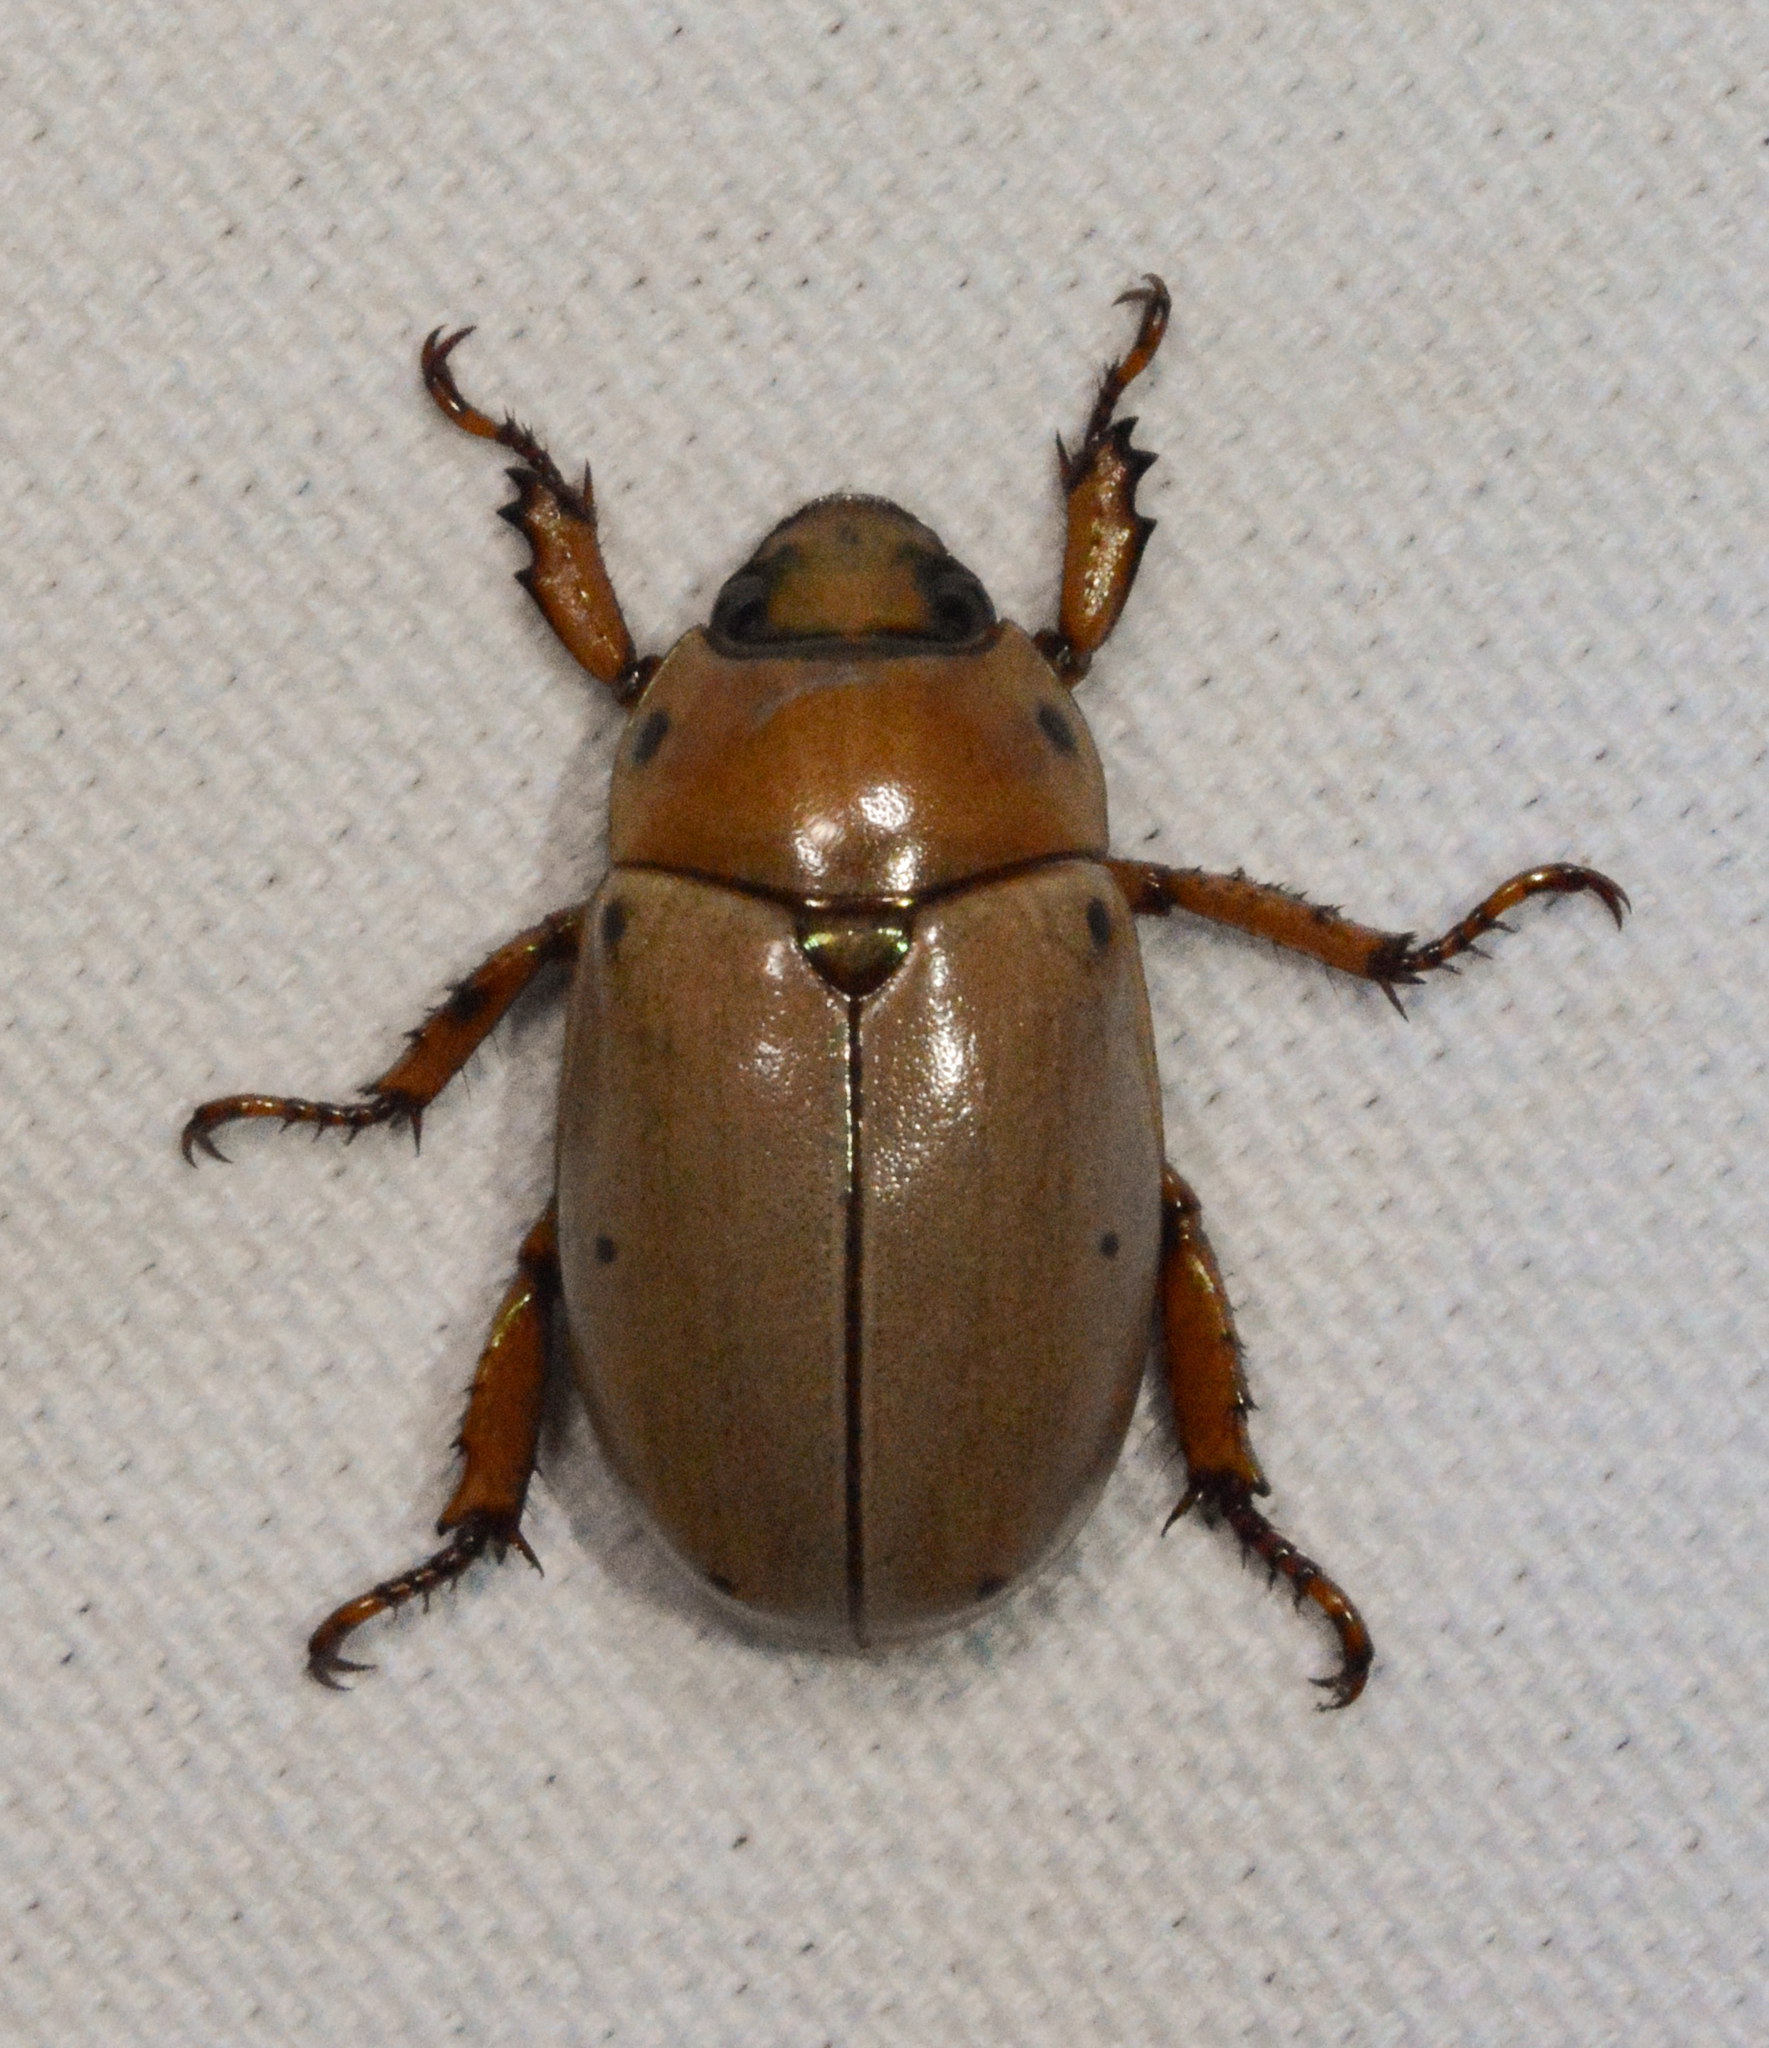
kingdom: Animalia
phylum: Arthropoda
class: Insecta
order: Coleoptera
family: Scarabaeidae
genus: Pelidnota
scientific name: Pelidnota punctata
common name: Grapevine beetle
